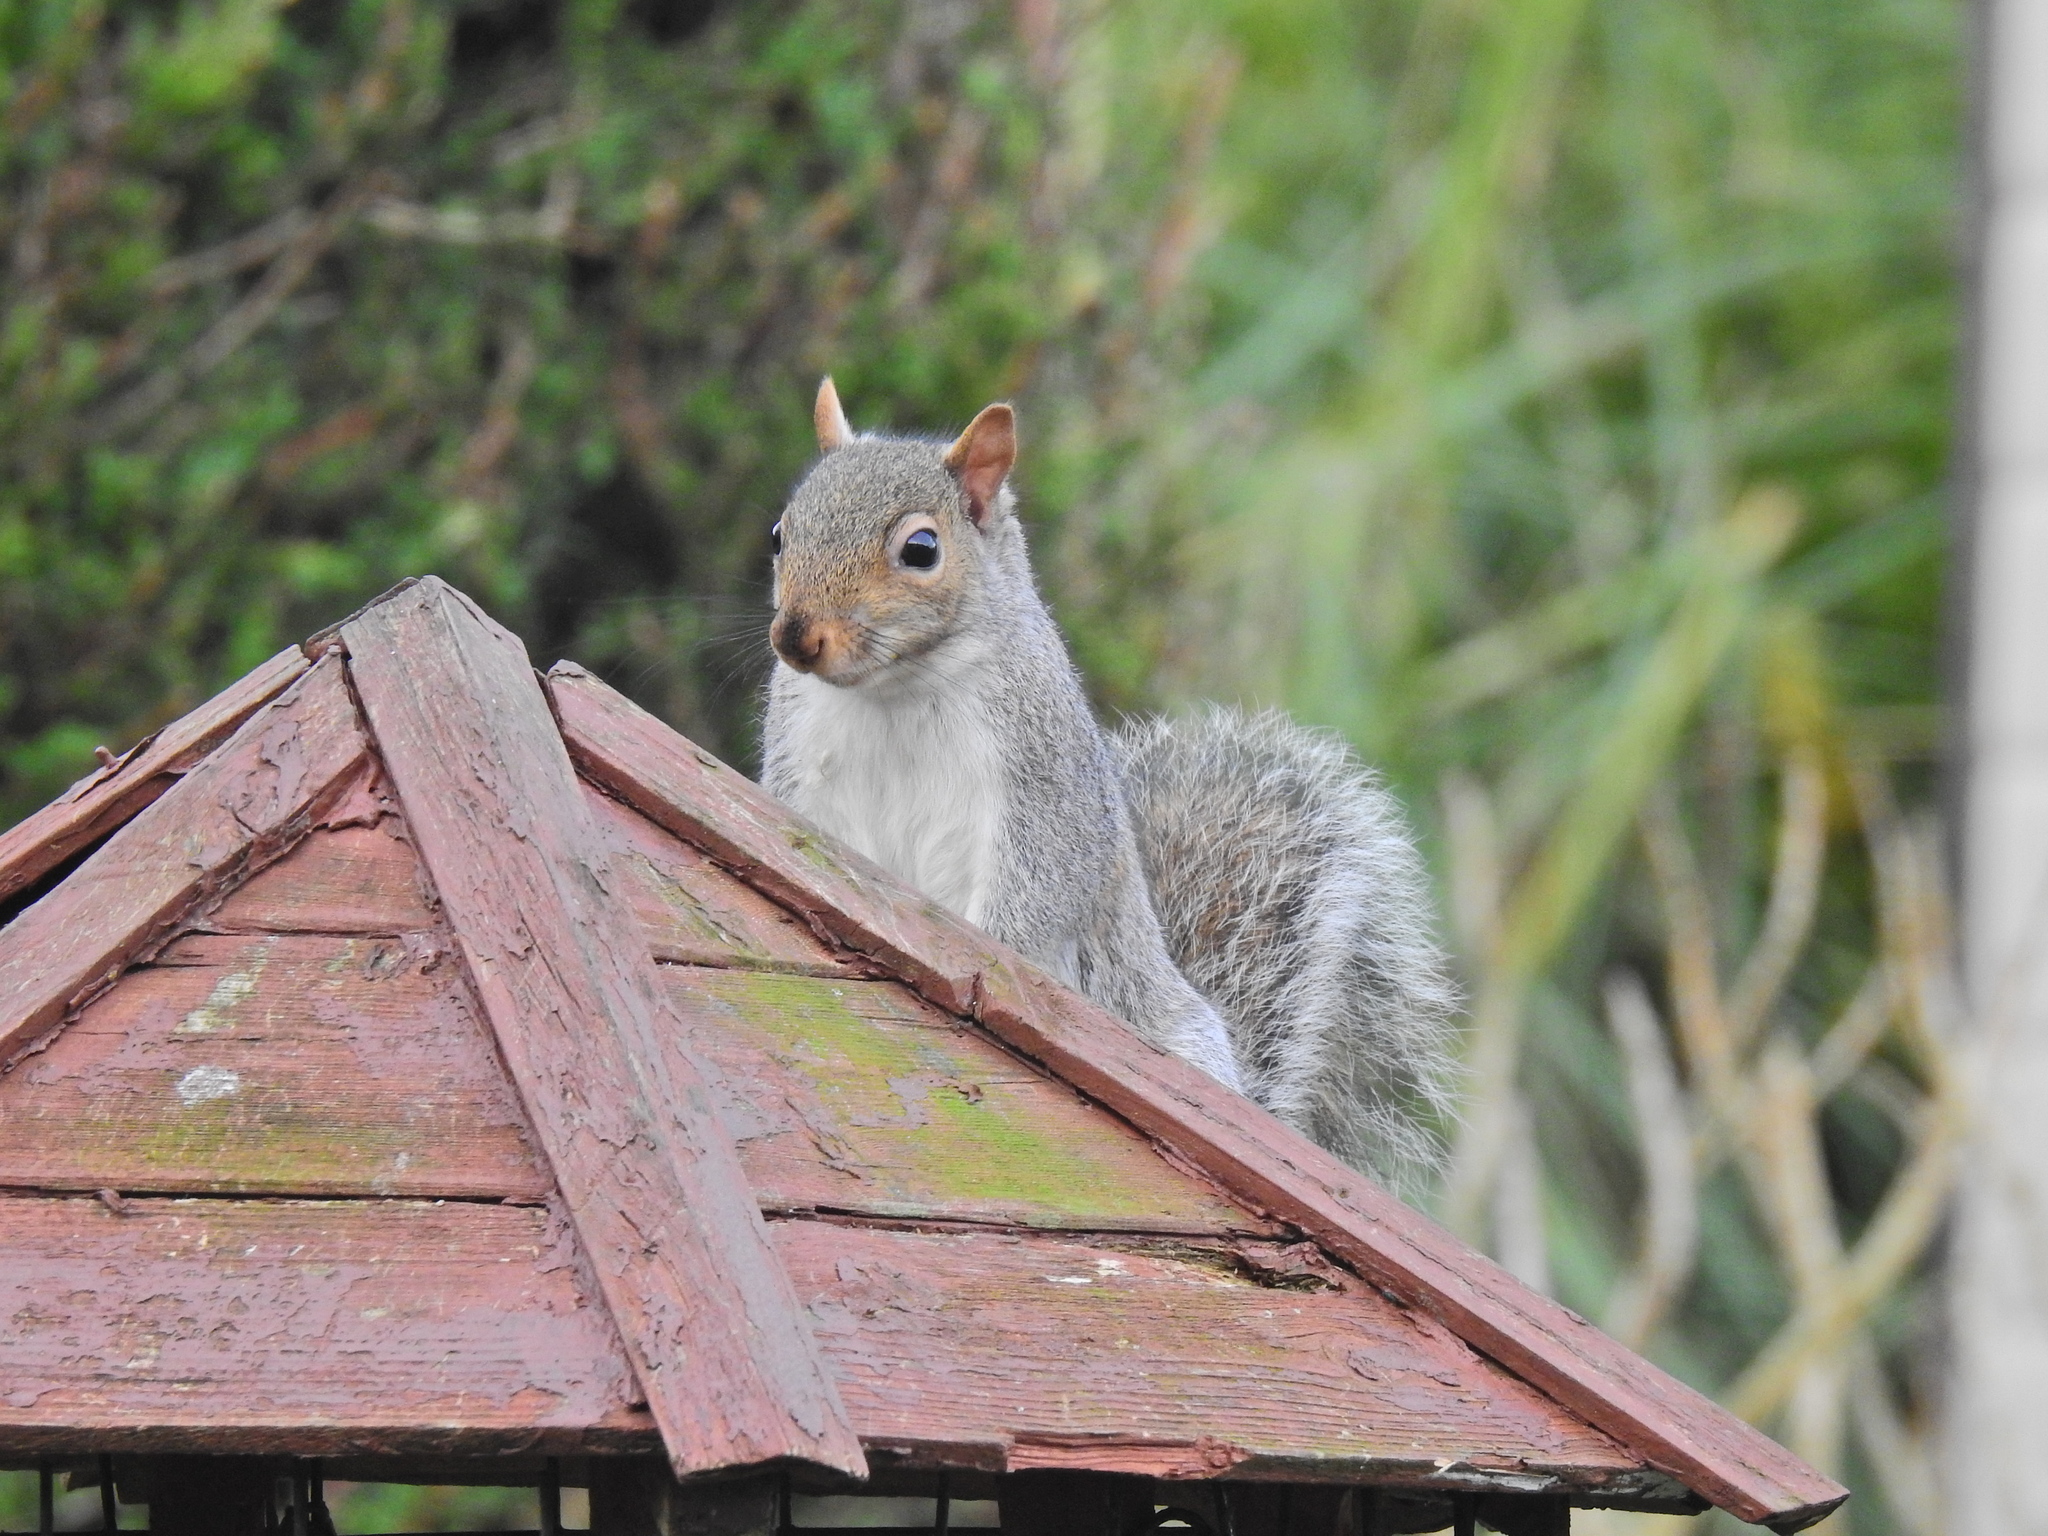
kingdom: Animalia
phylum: Chordata
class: Mammalia
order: Rodentia
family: Sciuridae
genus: Sciurus
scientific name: Sciurus carolinensis
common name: Eastern gray squirrel
